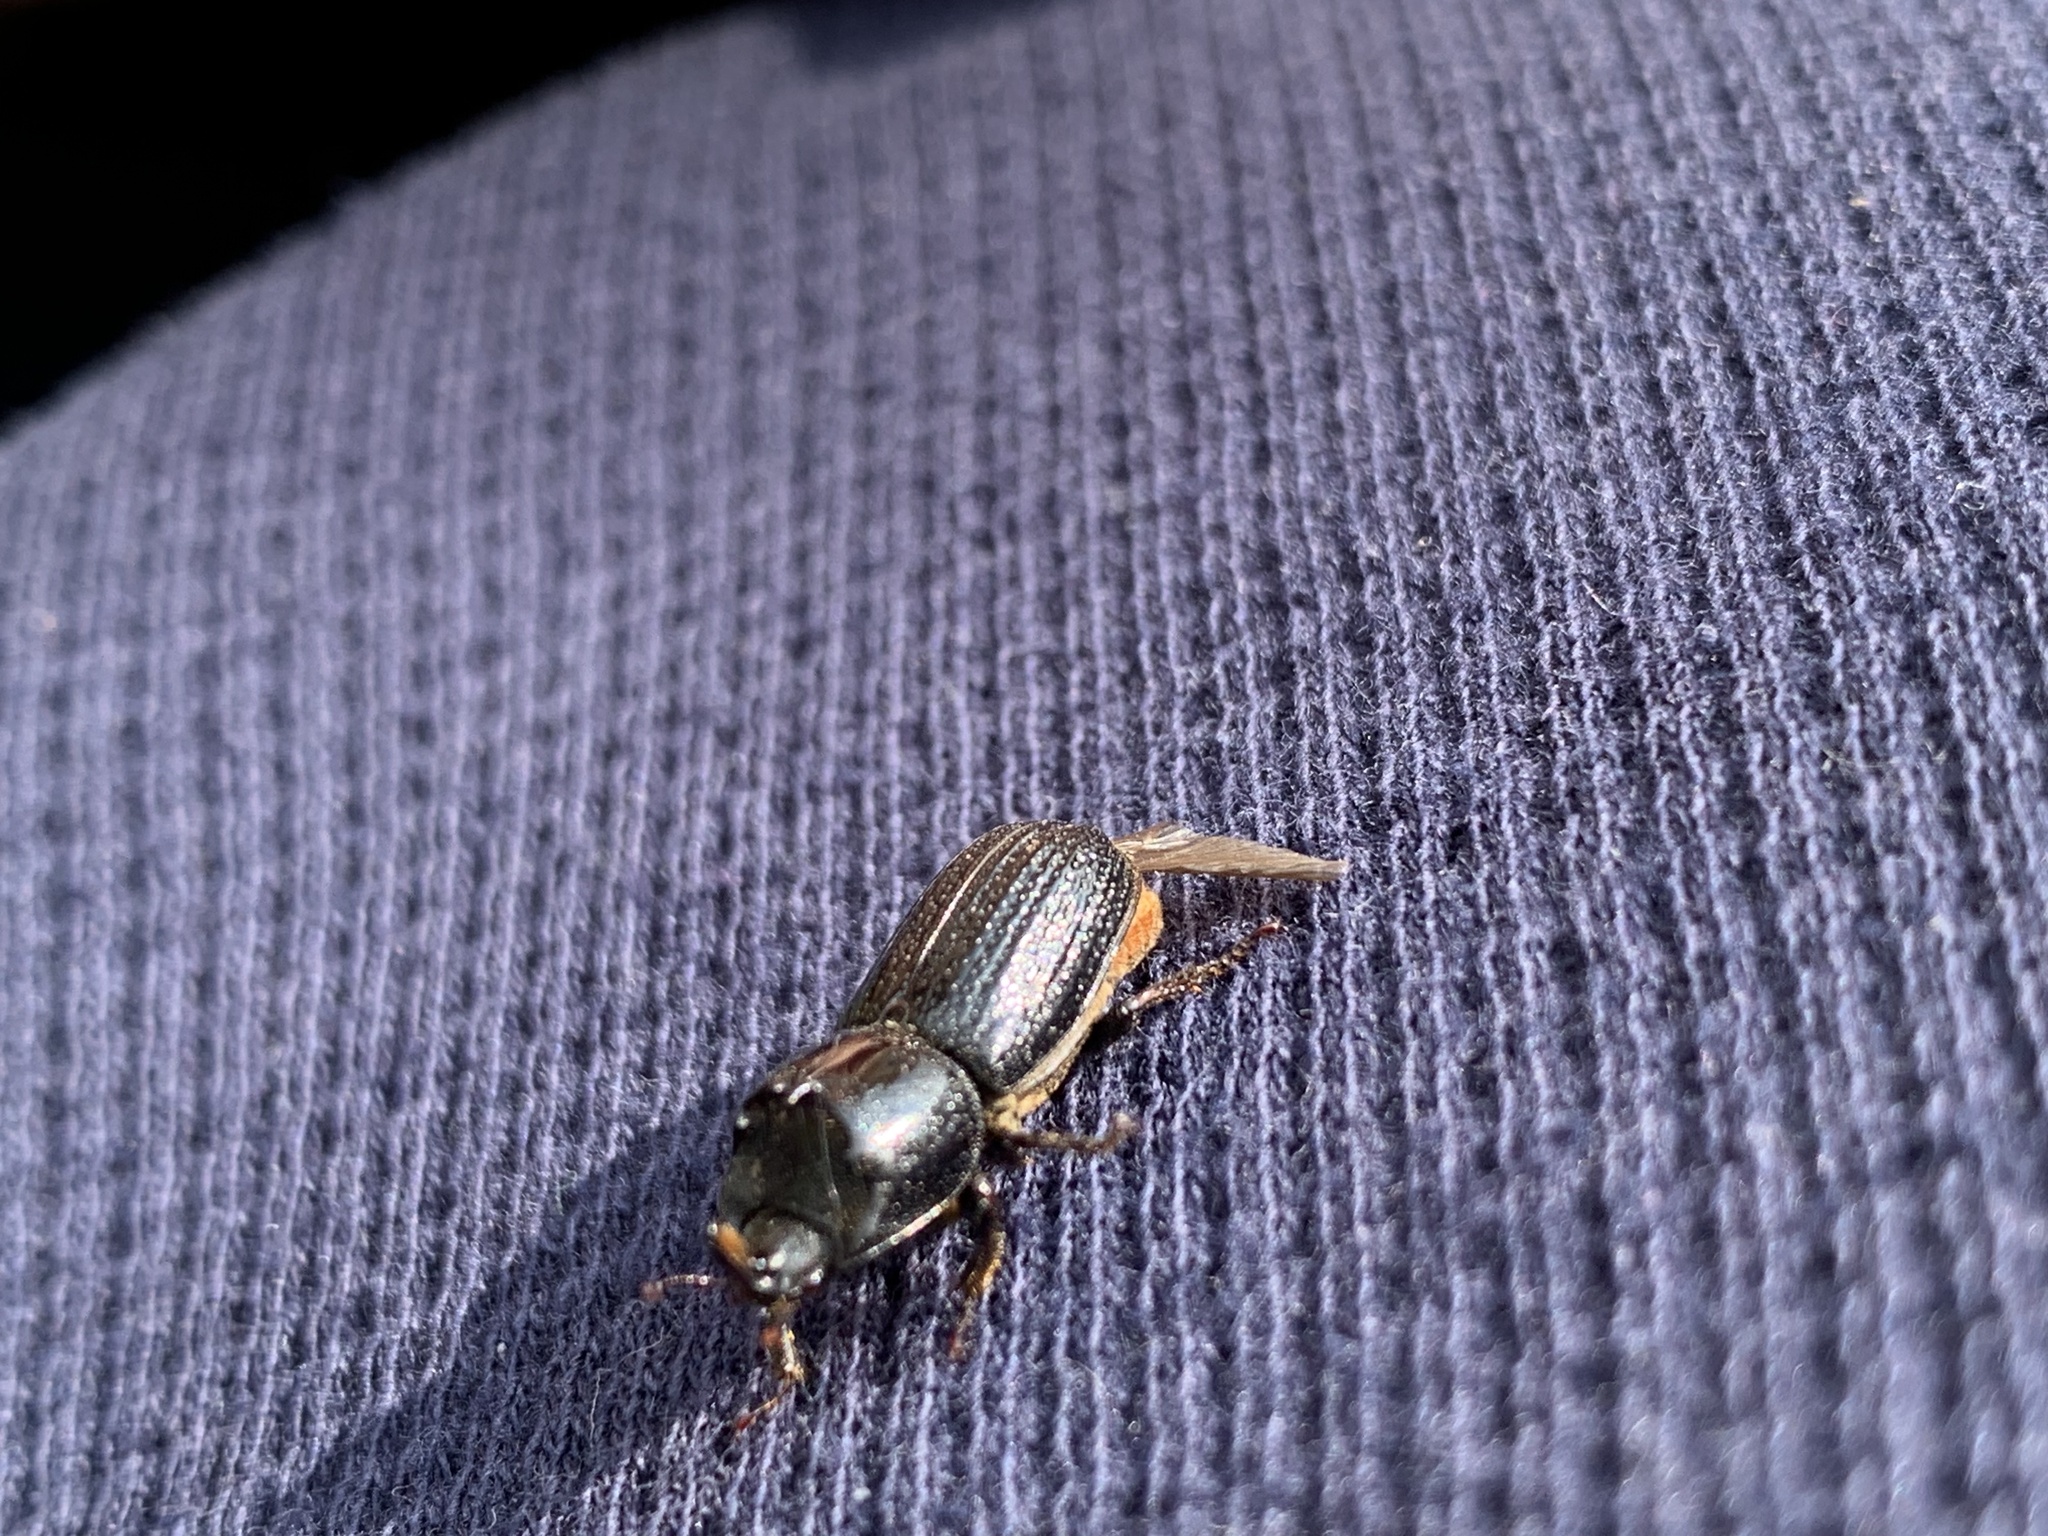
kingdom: Animalia
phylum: Arthropoda
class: Insecta
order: Coleoptera
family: Lucanidae
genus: Sinodendron
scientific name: Sinodendron cylindricum
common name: Rhinoceros beetle
